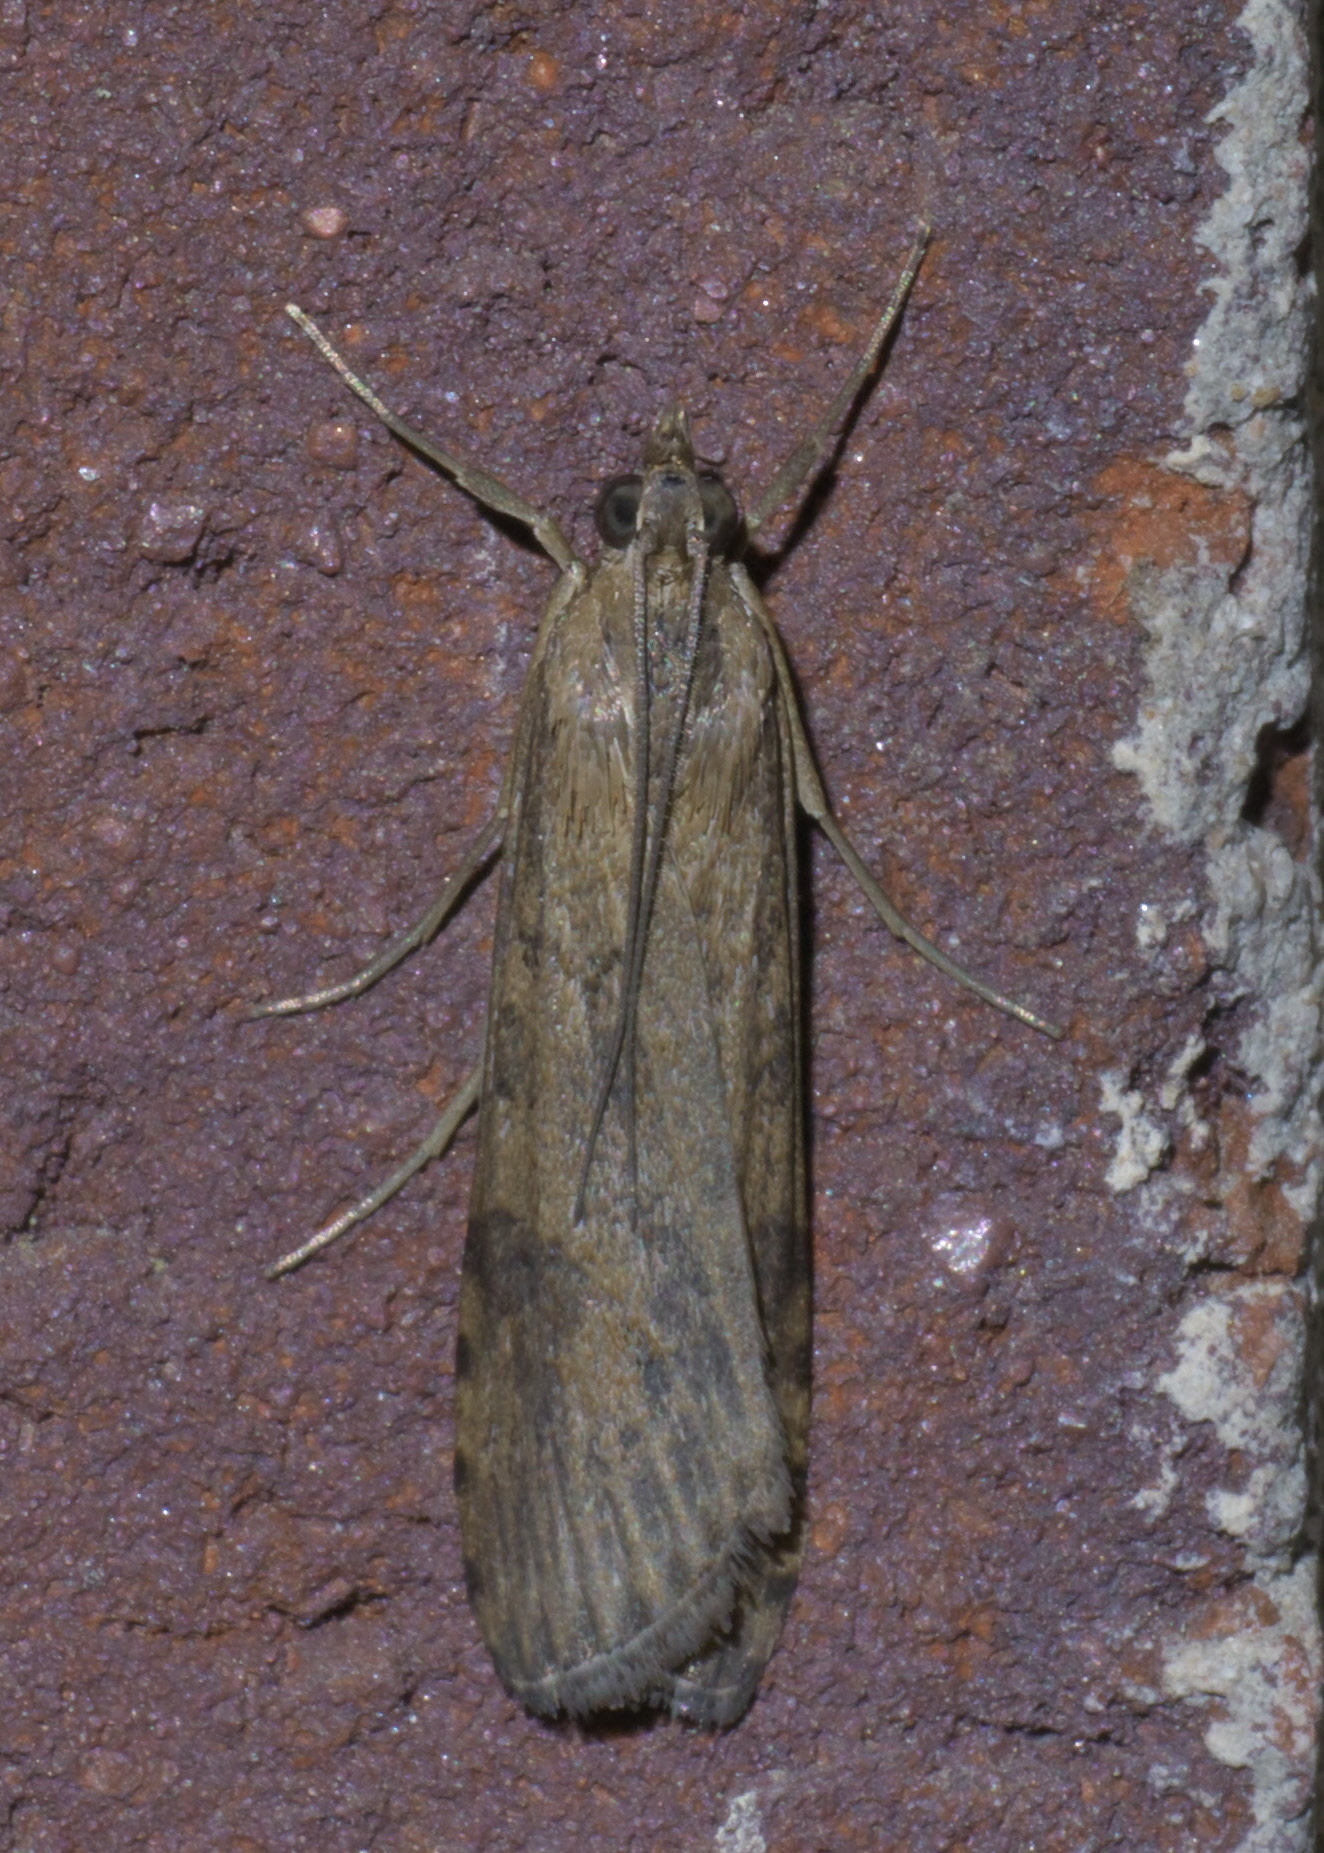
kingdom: Animalia
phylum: Arthropoda
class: Insecta
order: Lepidoptera
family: Crambidae
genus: Nomophila
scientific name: Nomophila nearctica
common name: American rush veneer
